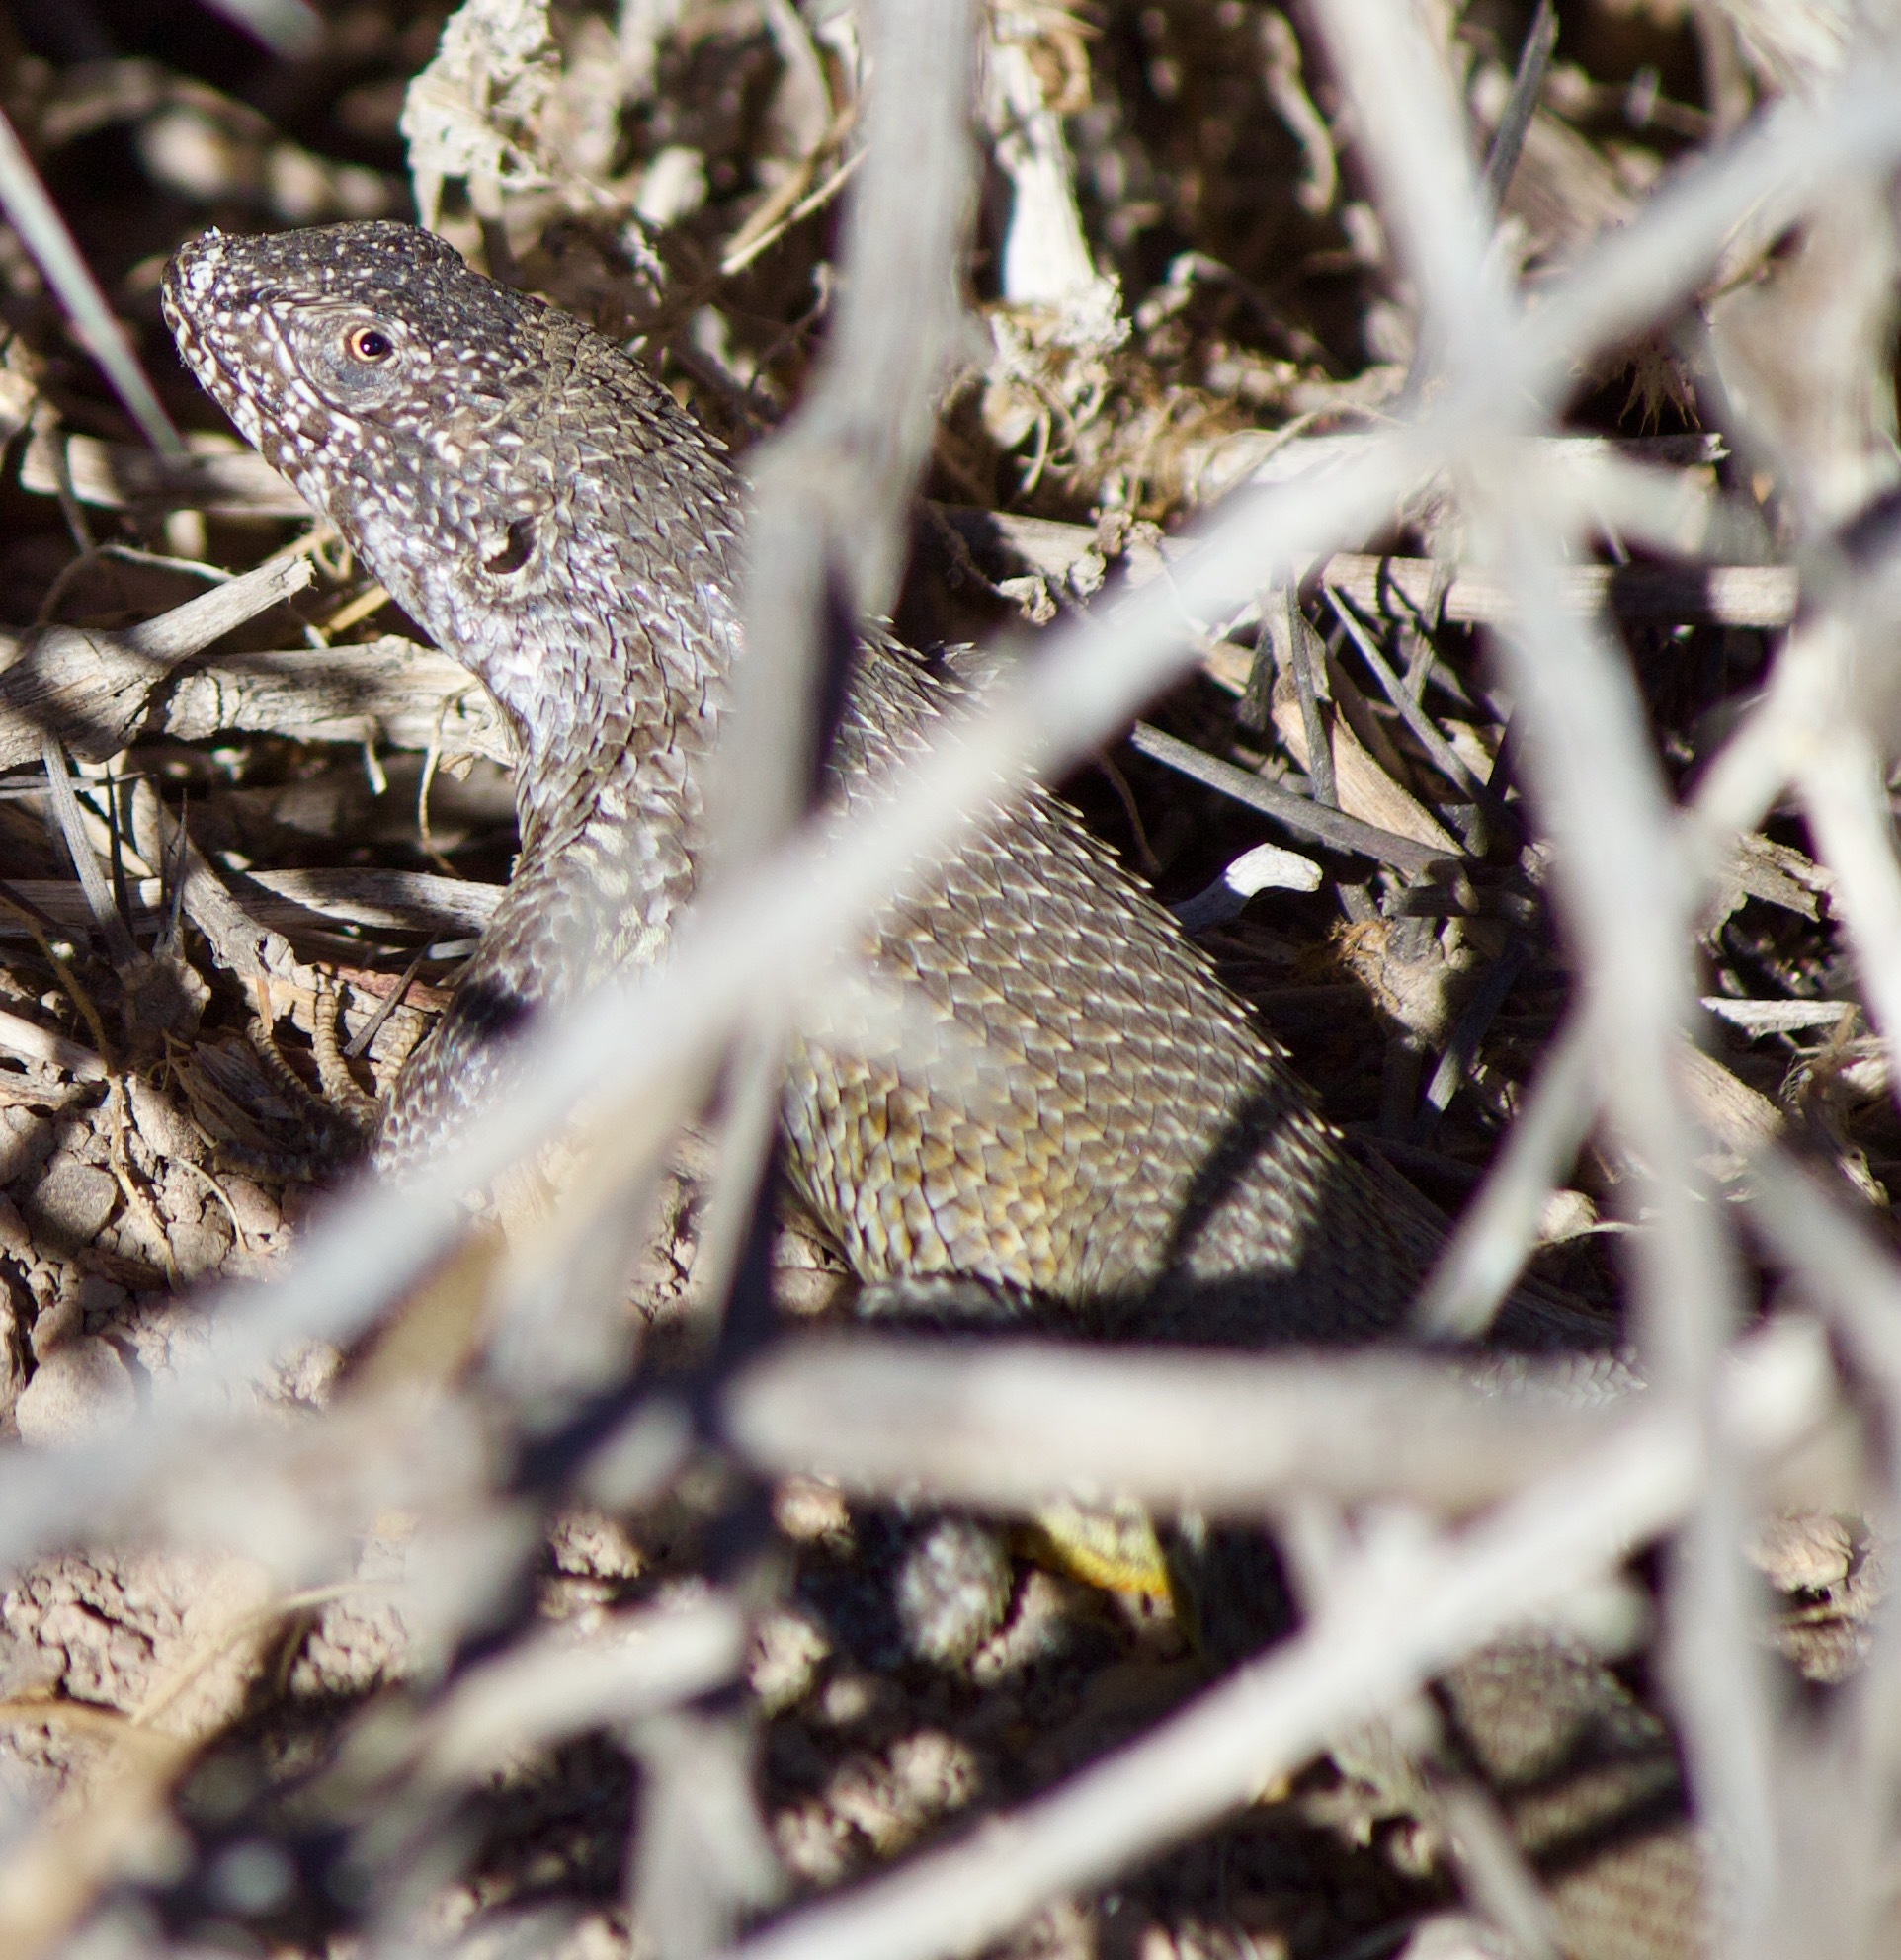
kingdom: Animalia
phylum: Chordata
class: Squamata
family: Liolaemidae
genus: Liolaemus
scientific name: Liolaemus nitidus
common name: Shining tree iguana
